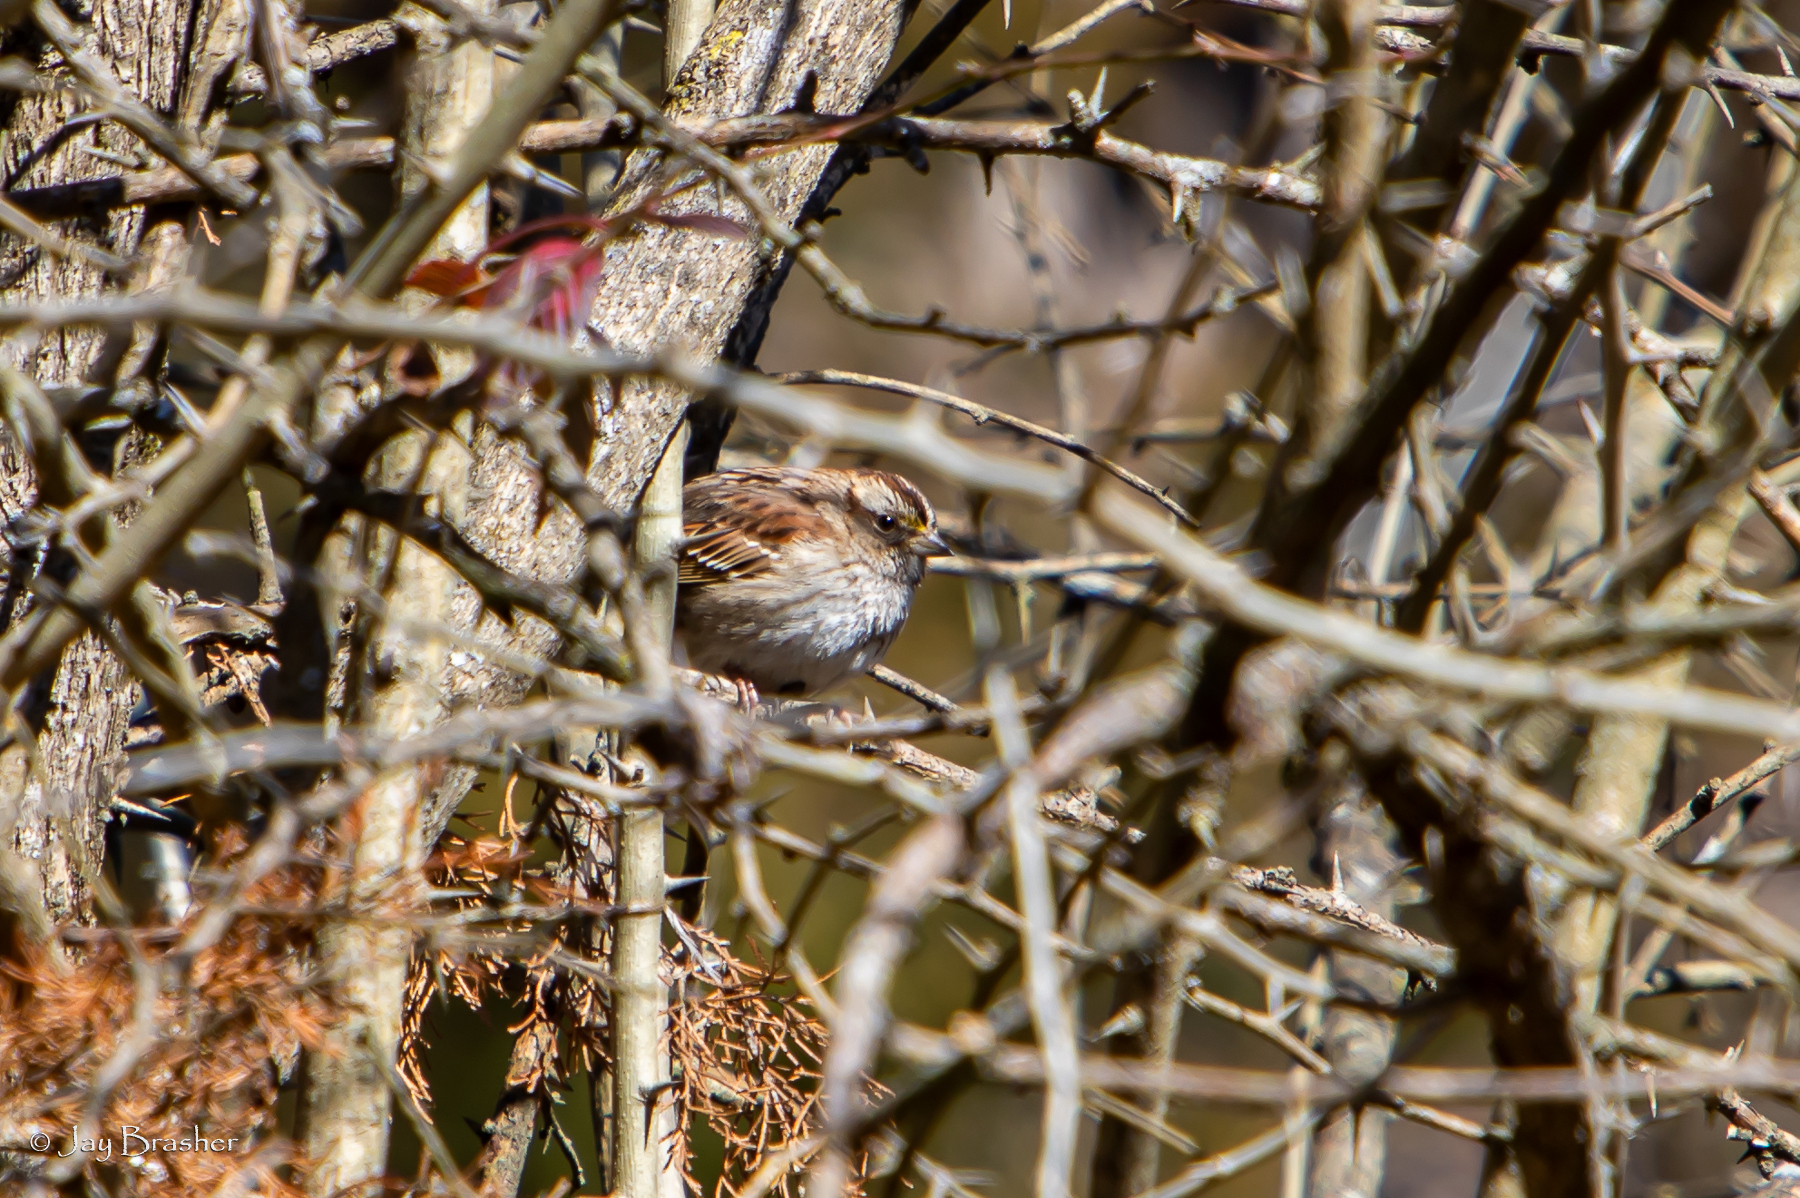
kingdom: Animalia
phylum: Chordata
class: Aves
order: Passeriformes
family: Passerellidae
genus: Zonotrichia
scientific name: Zonotrichia albicollis
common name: White-throated sparrow
